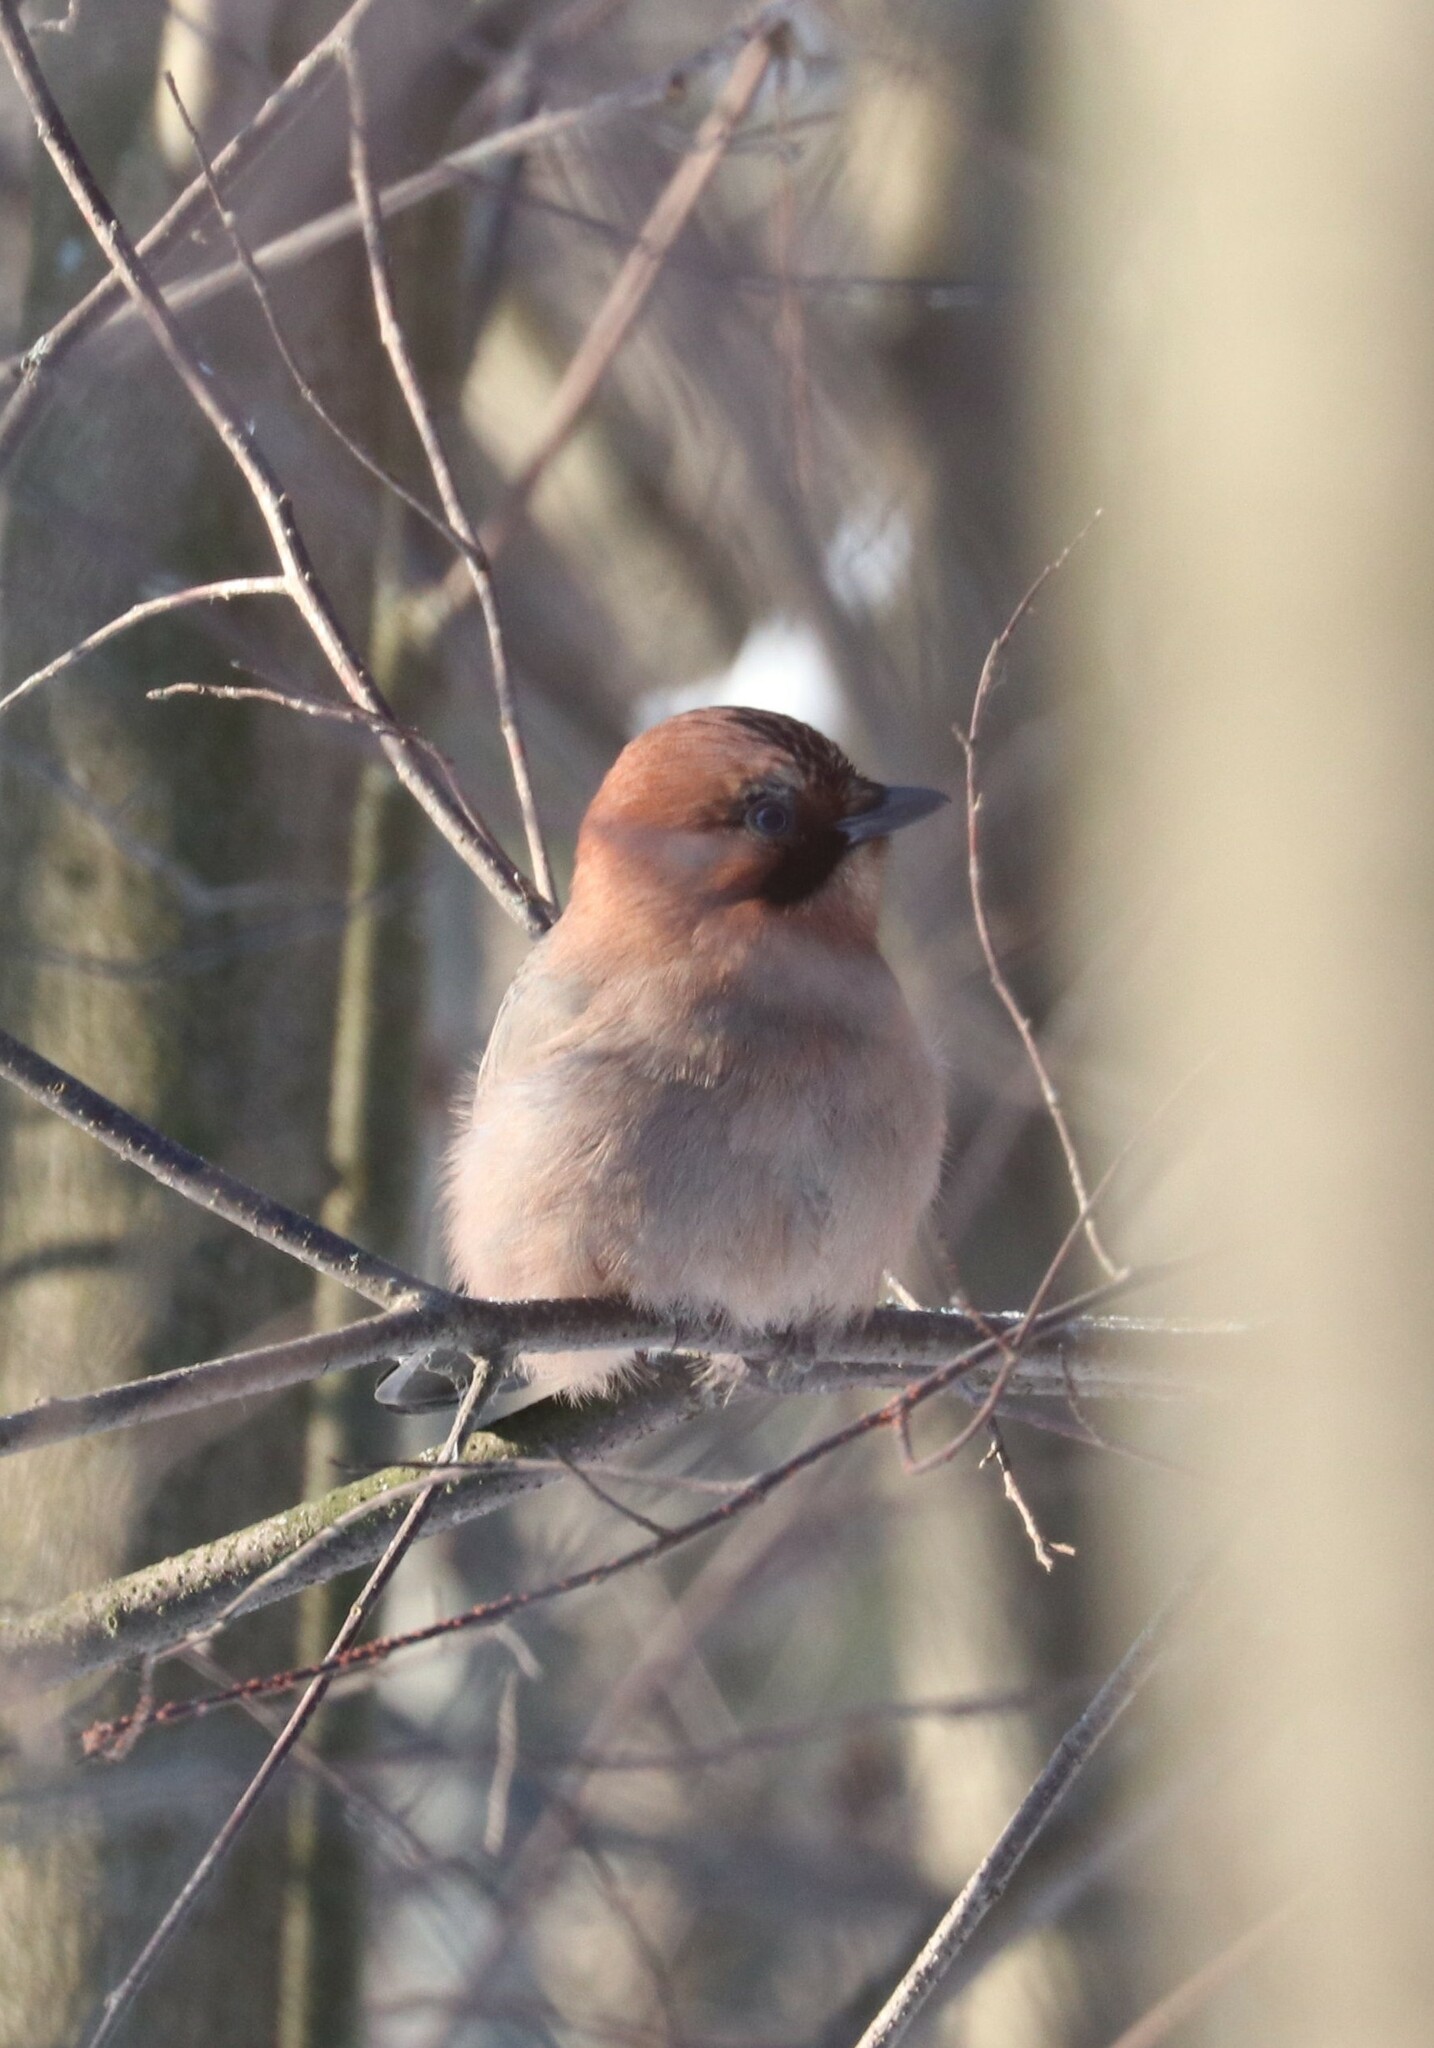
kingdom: Animalia
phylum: Chordata
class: Aves
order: Passeriformes
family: Corvidae
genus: Garrulus
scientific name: Garrulus glandarius
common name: Eurasian jay
